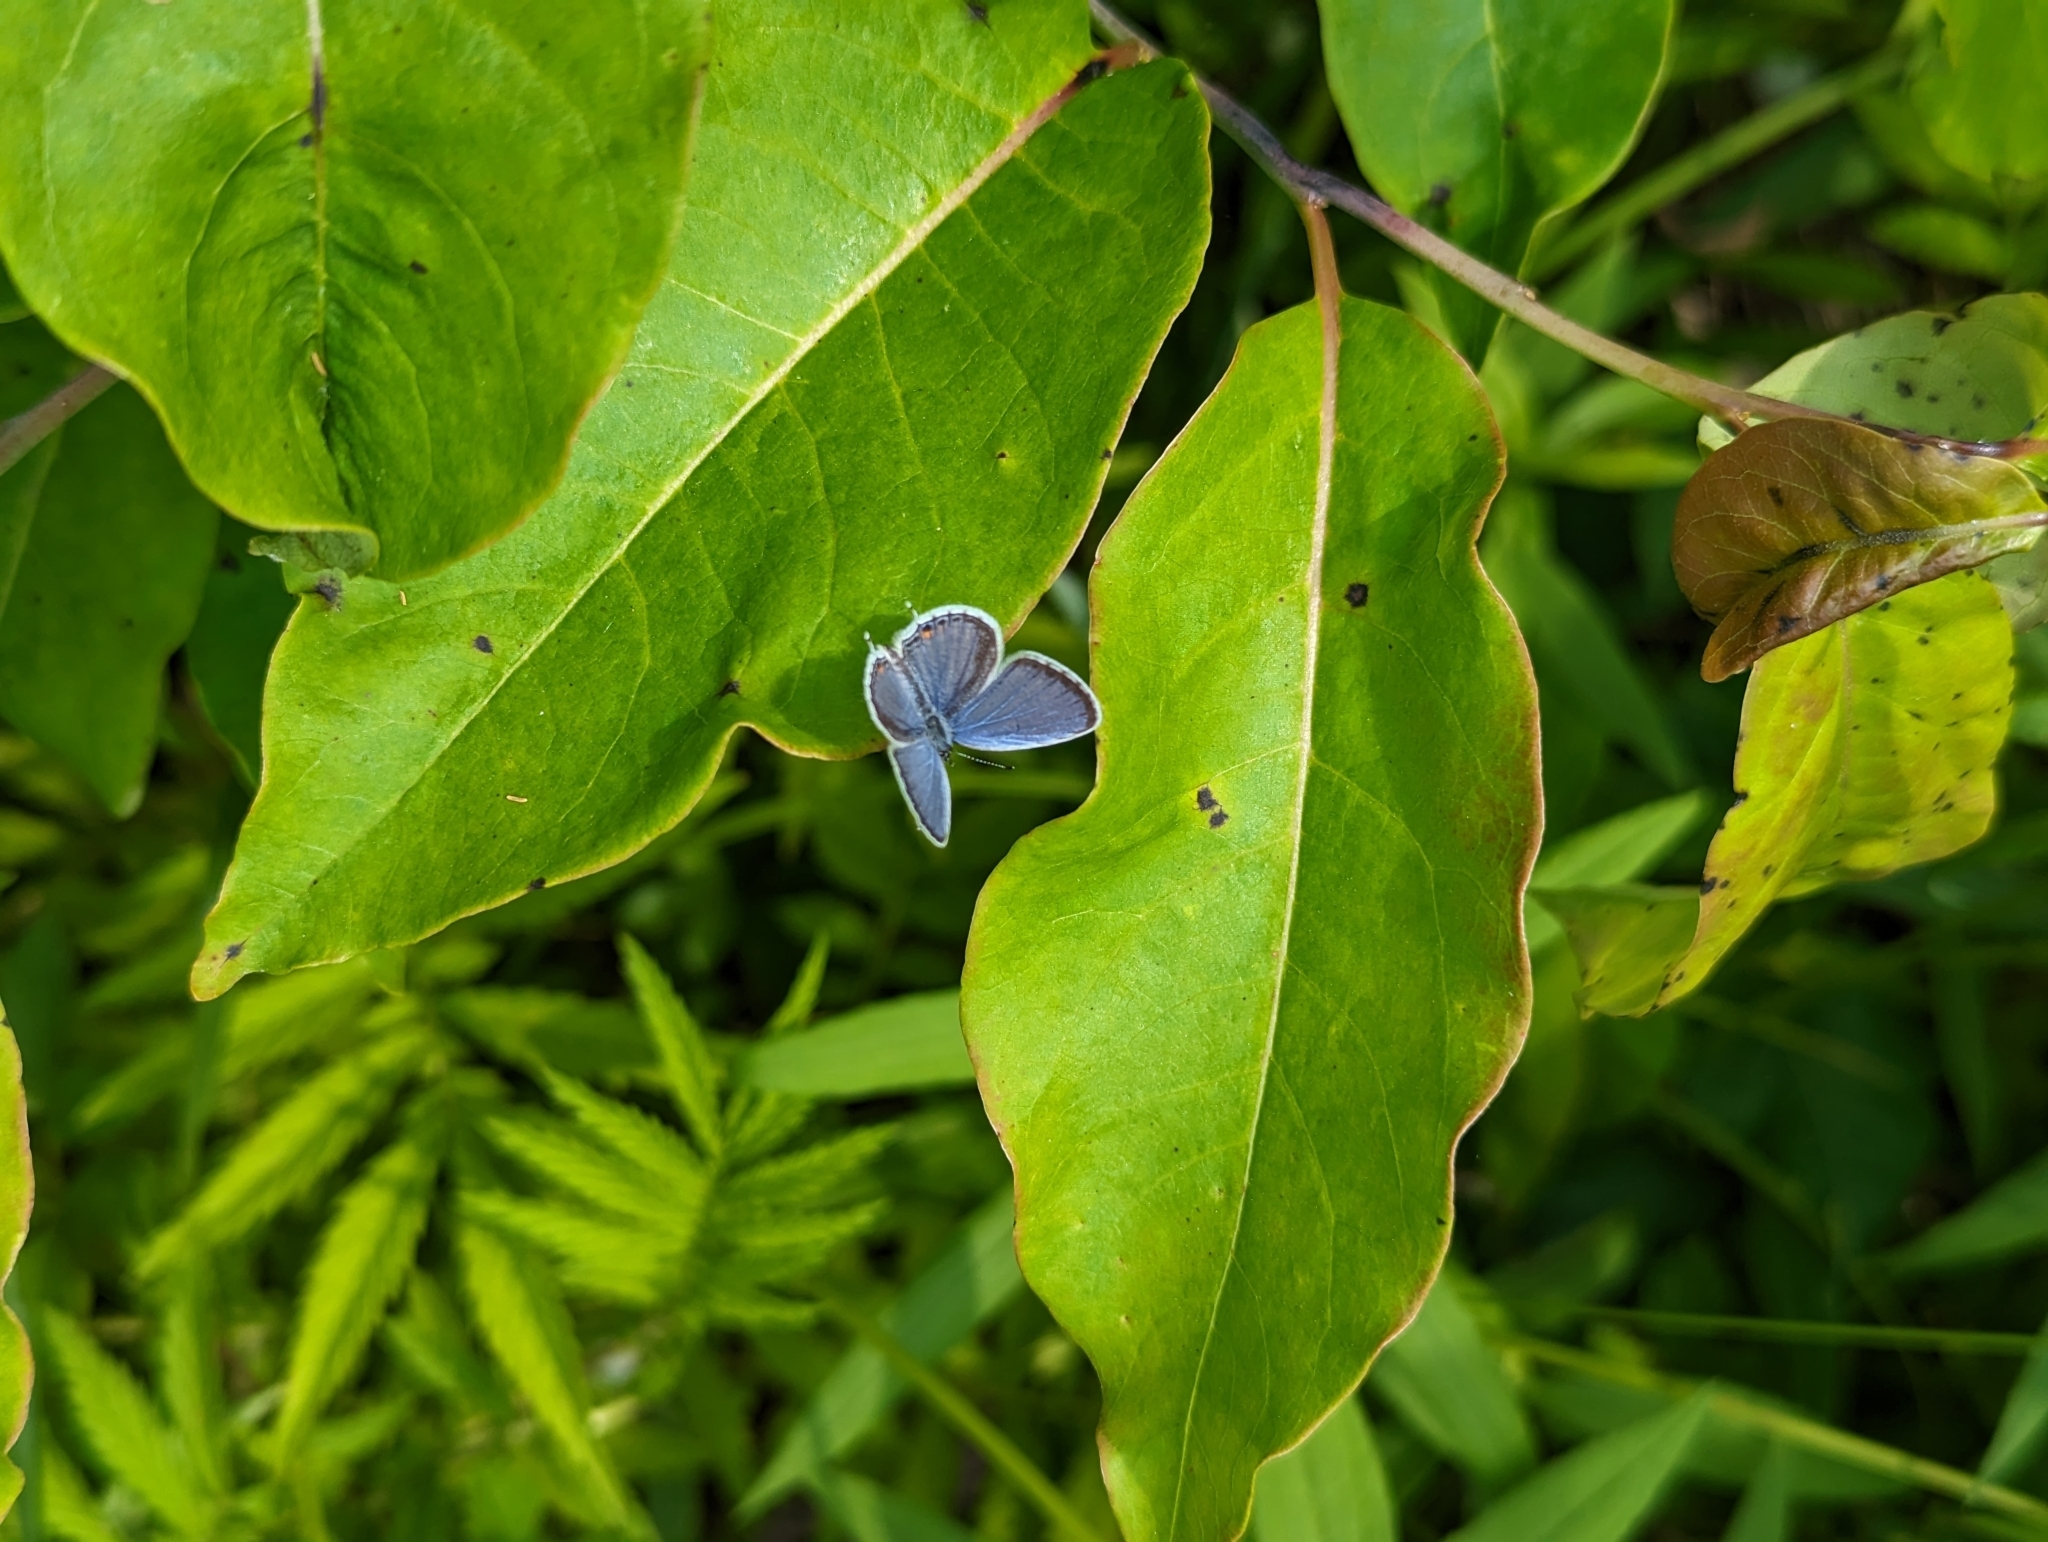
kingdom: Animalia
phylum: Arthropoda
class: Insecta
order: Lepidoptera
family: Lycaenidae
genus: Elkalyce
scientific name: Elkalyce comyntas
